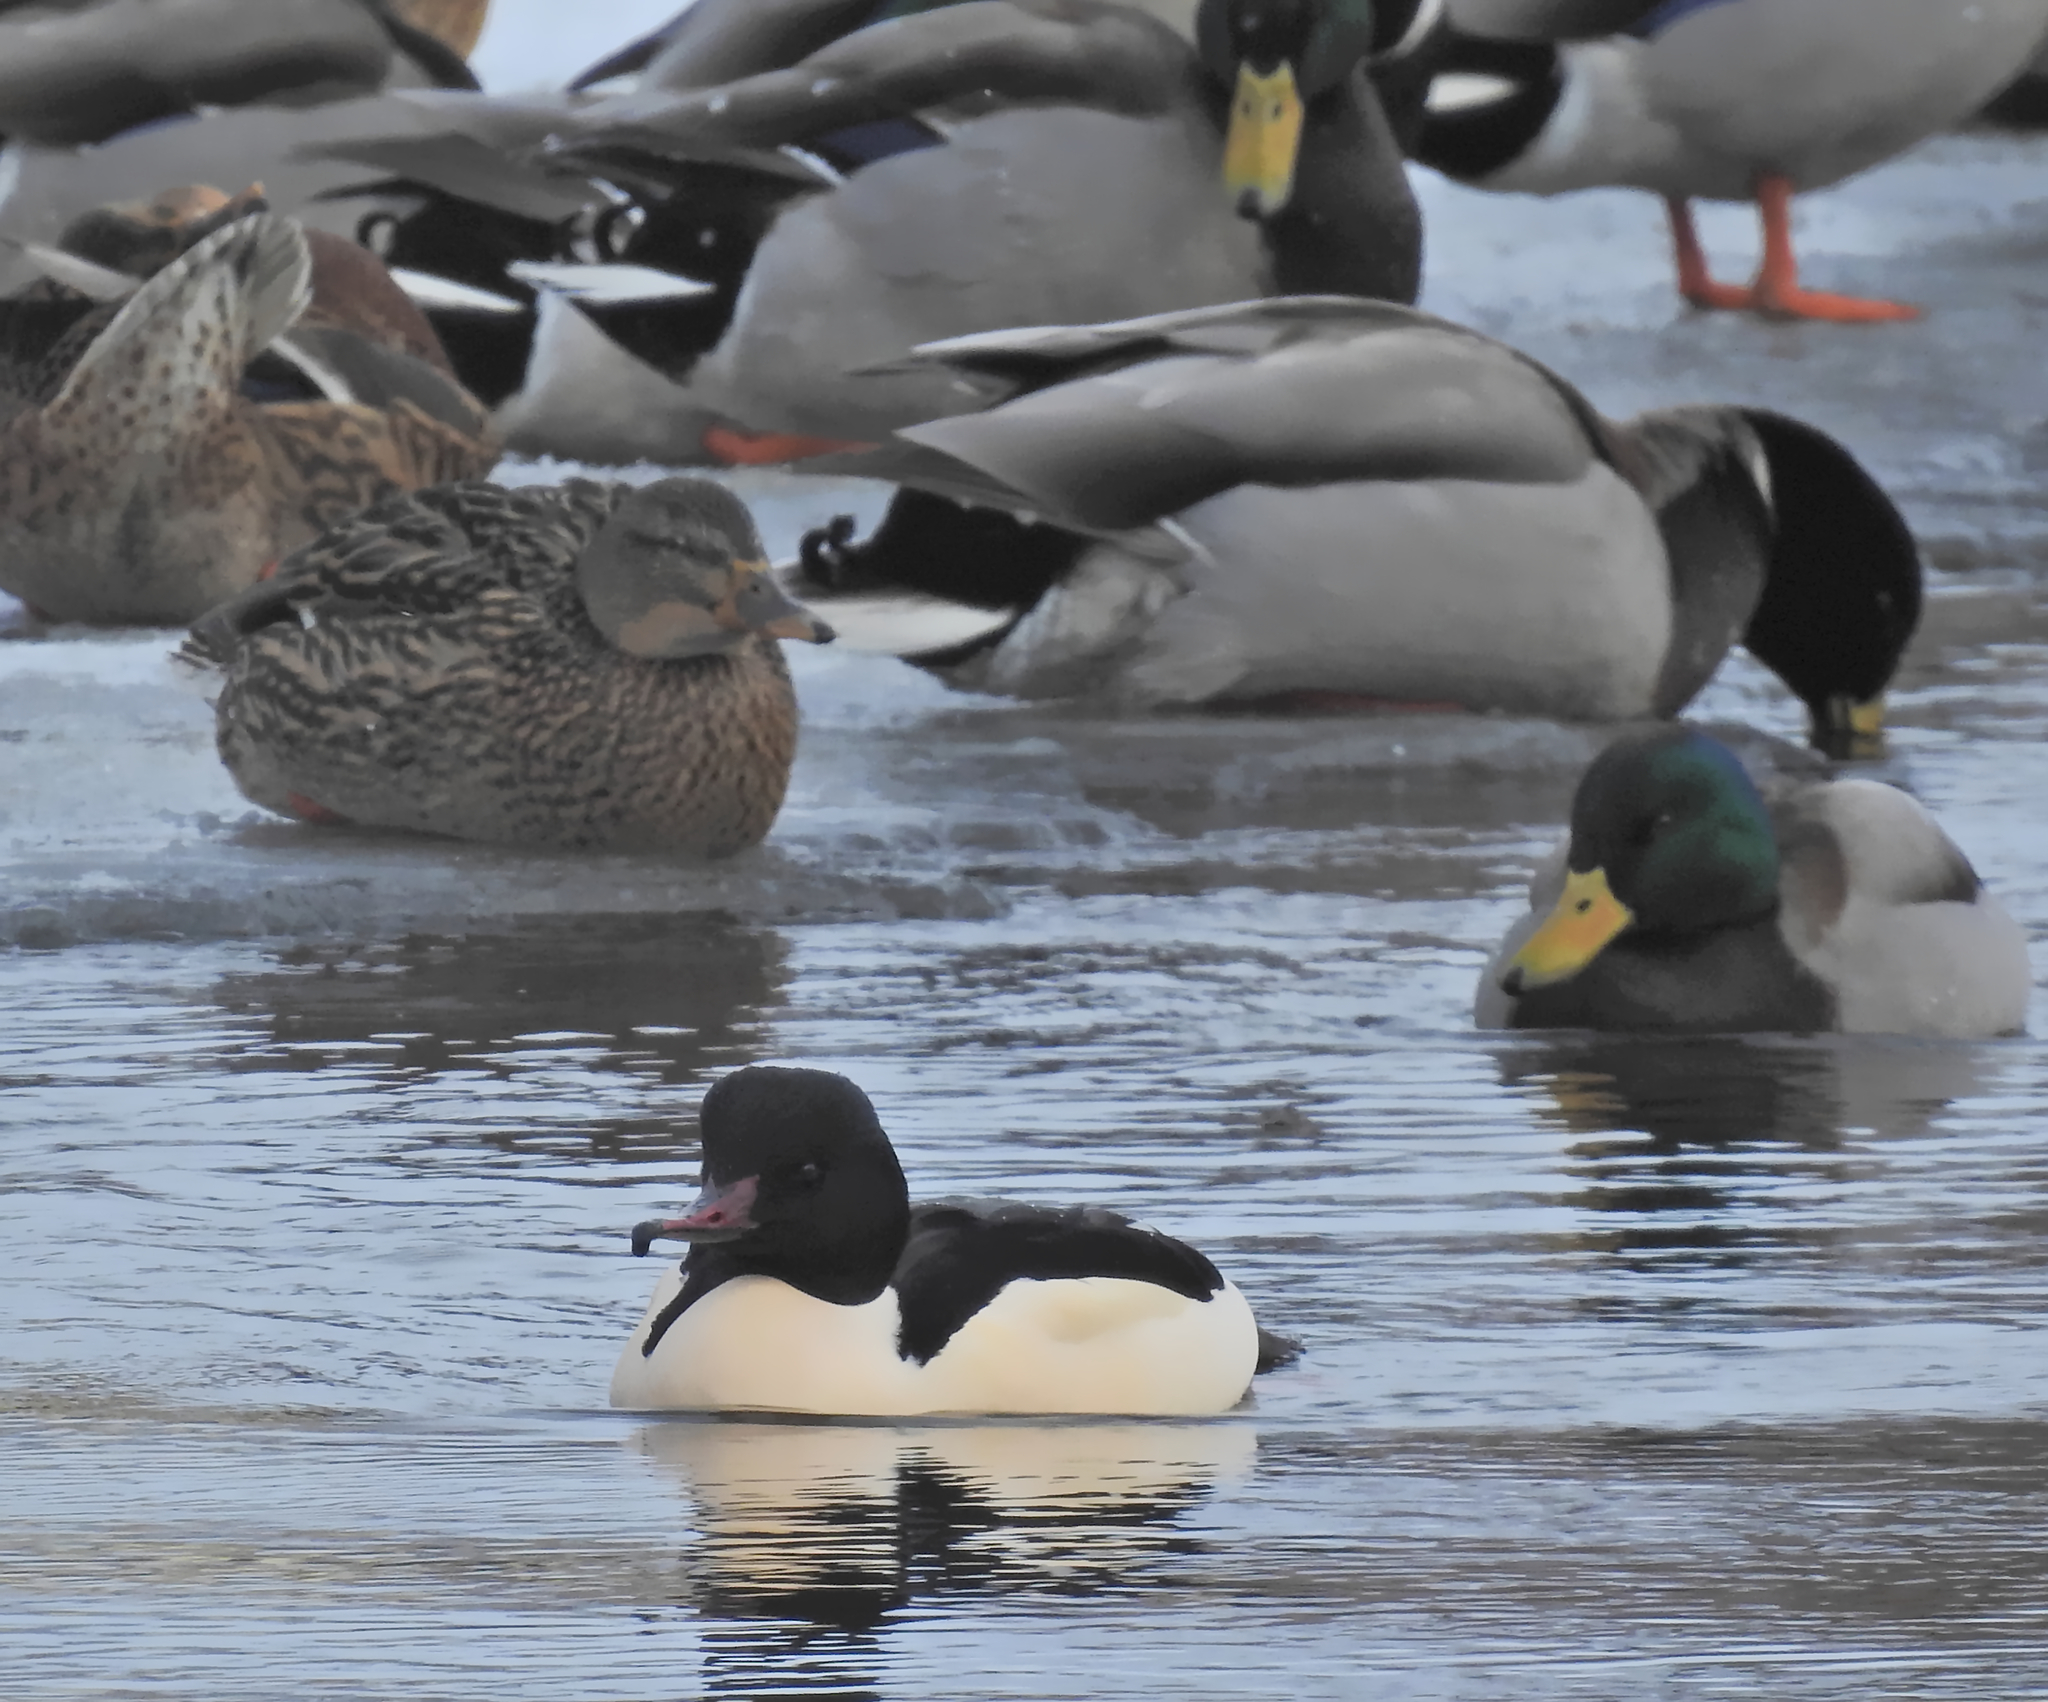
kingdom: Animalia
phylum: Chordata
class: Aves
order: Anseriformes
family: Anatidae
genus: Mergus
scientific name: Mergus merganser
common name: Common merganser
